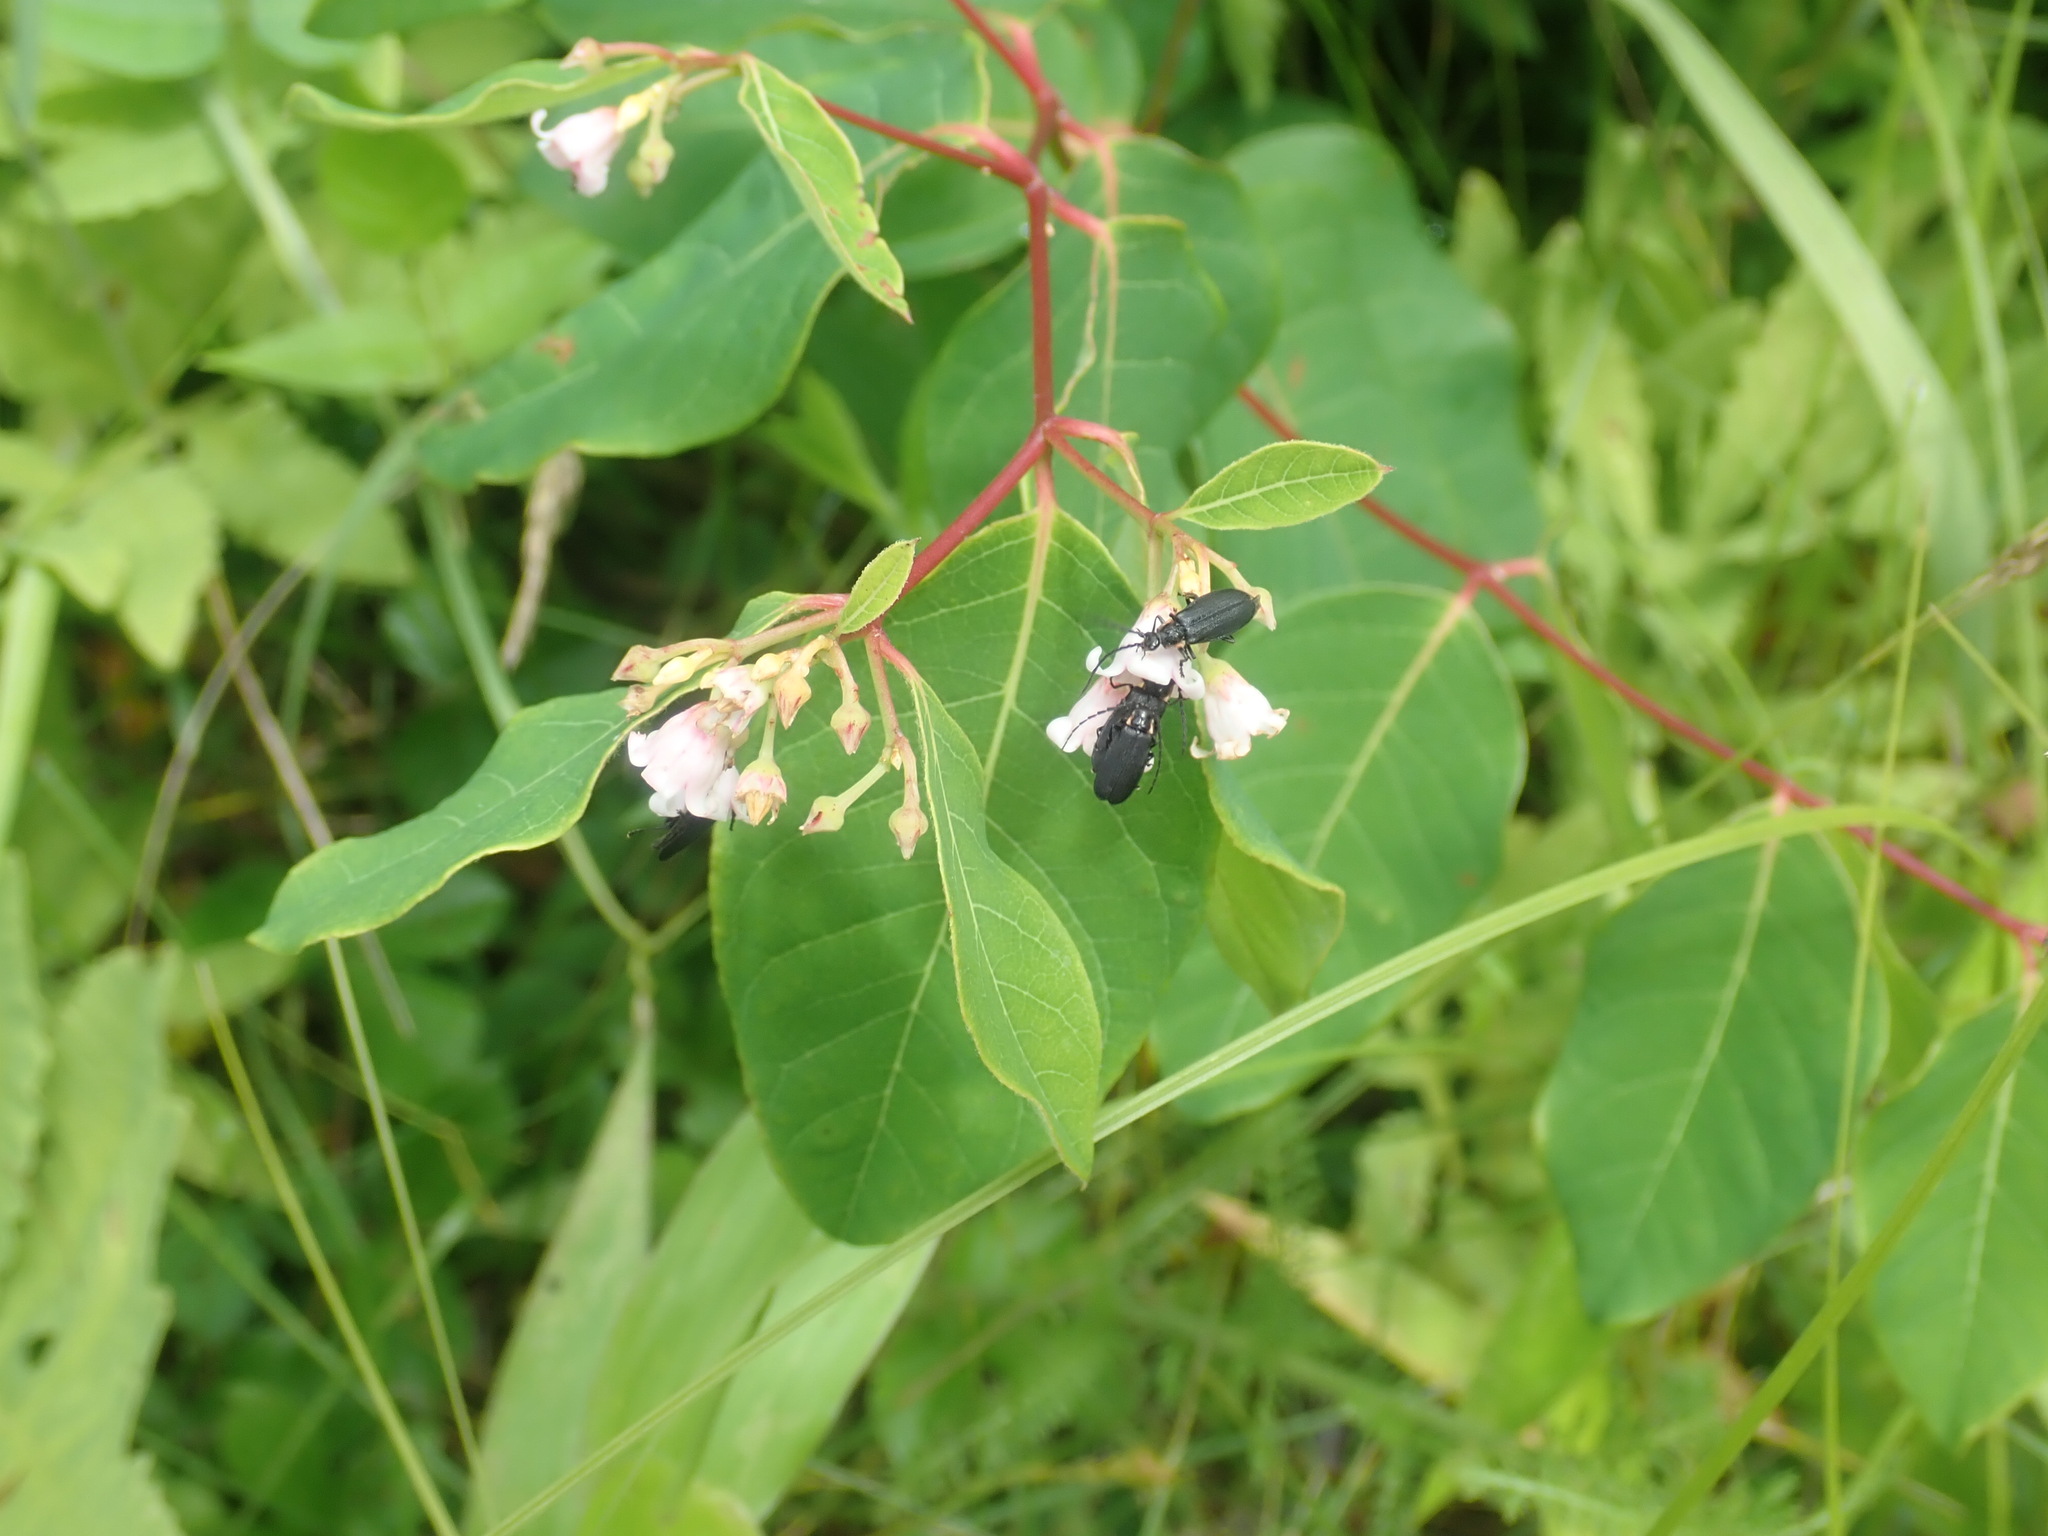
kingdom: Plantae
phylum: Tracheophyta
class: Magnoliopsida
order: Gentianales
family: Apocynaceae
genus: Apocynum
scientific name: Apocynum androsaemifolium
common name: Spreading dogbane
